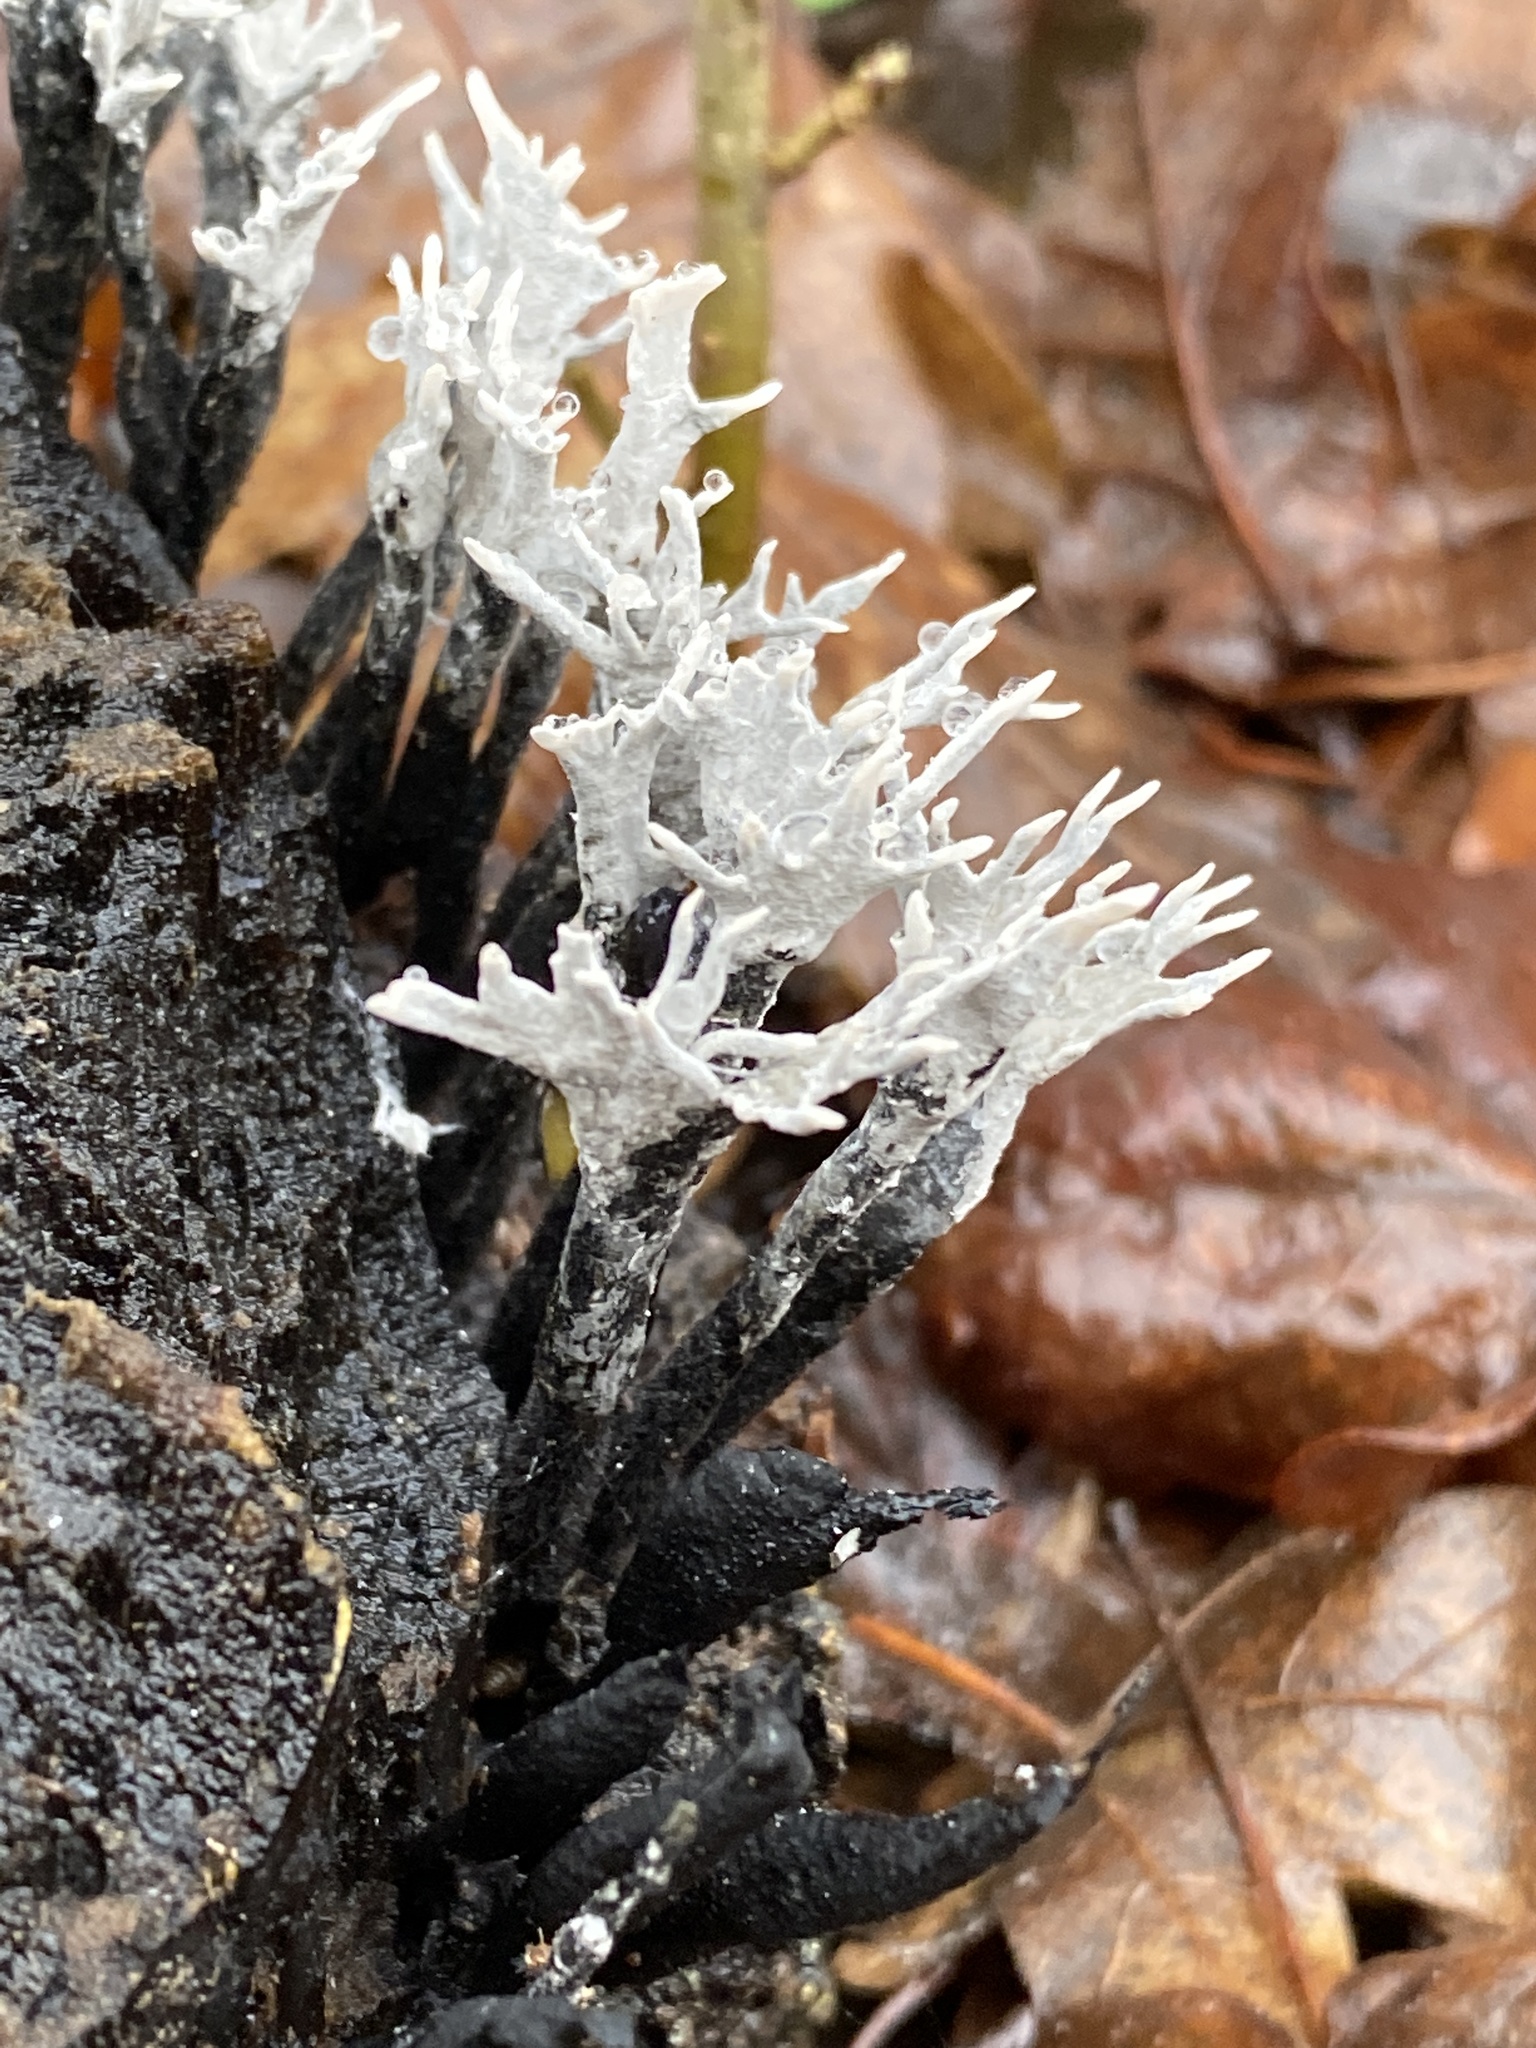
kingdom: Fungi
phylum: Ascomycota
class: Sordariomycetes
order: Xylariales
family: Xylariaceae
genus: Xylaria
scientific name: Xylaria hypoxylon
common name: Candle-snuff fungus
